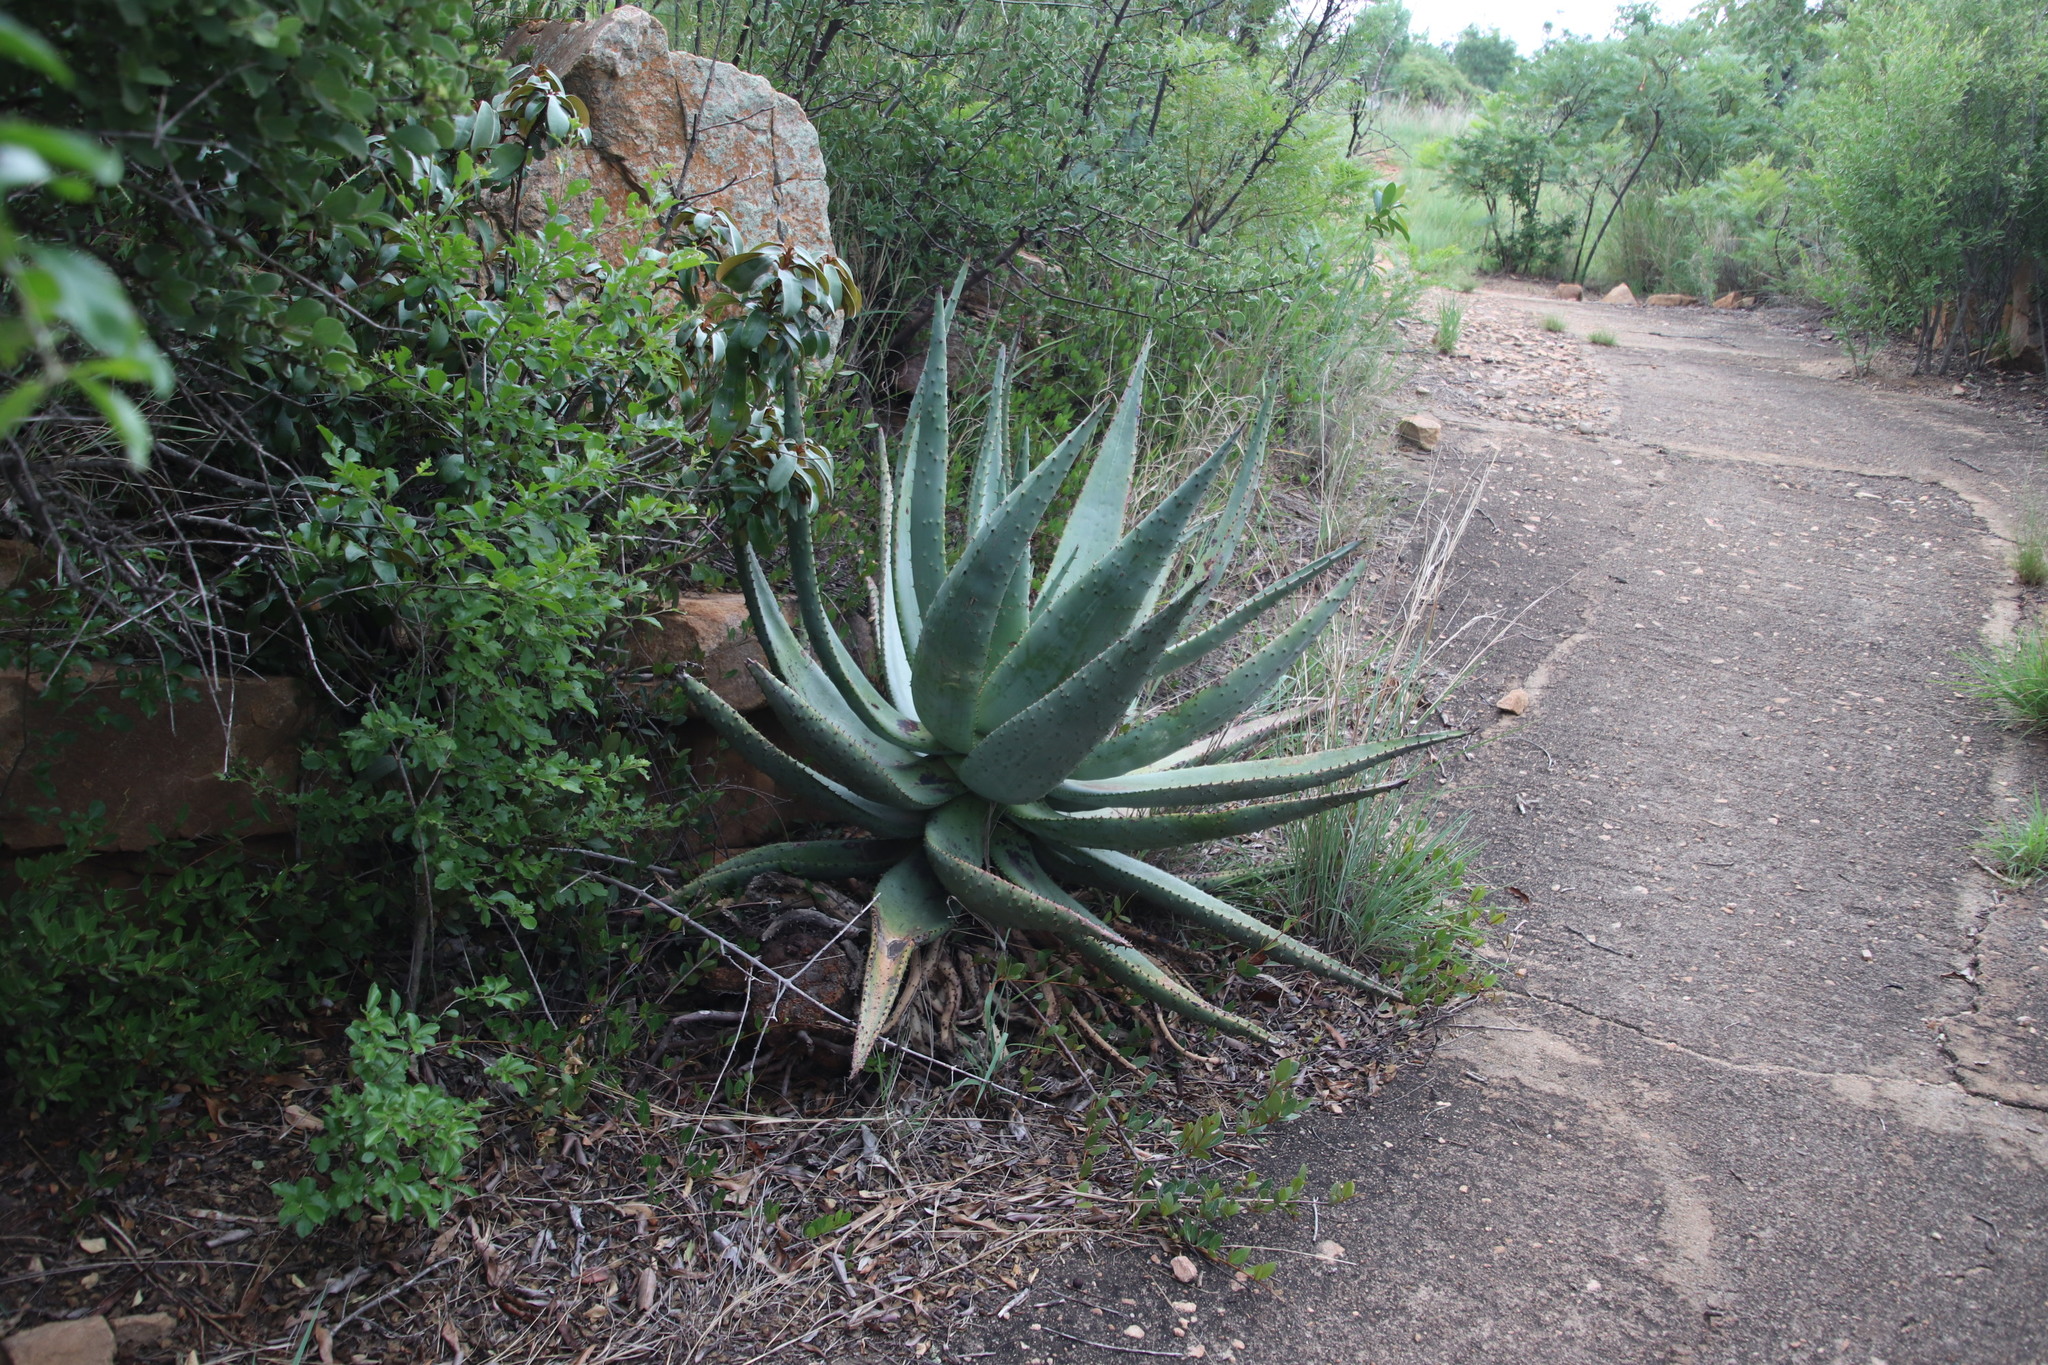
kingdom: Plantae
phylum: Tracheophyta
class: Liliopsida
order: Asparagales
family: Asphodelaceae
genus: Aloe
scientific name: Aloe marlothii
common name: Flat-flowered aloe
